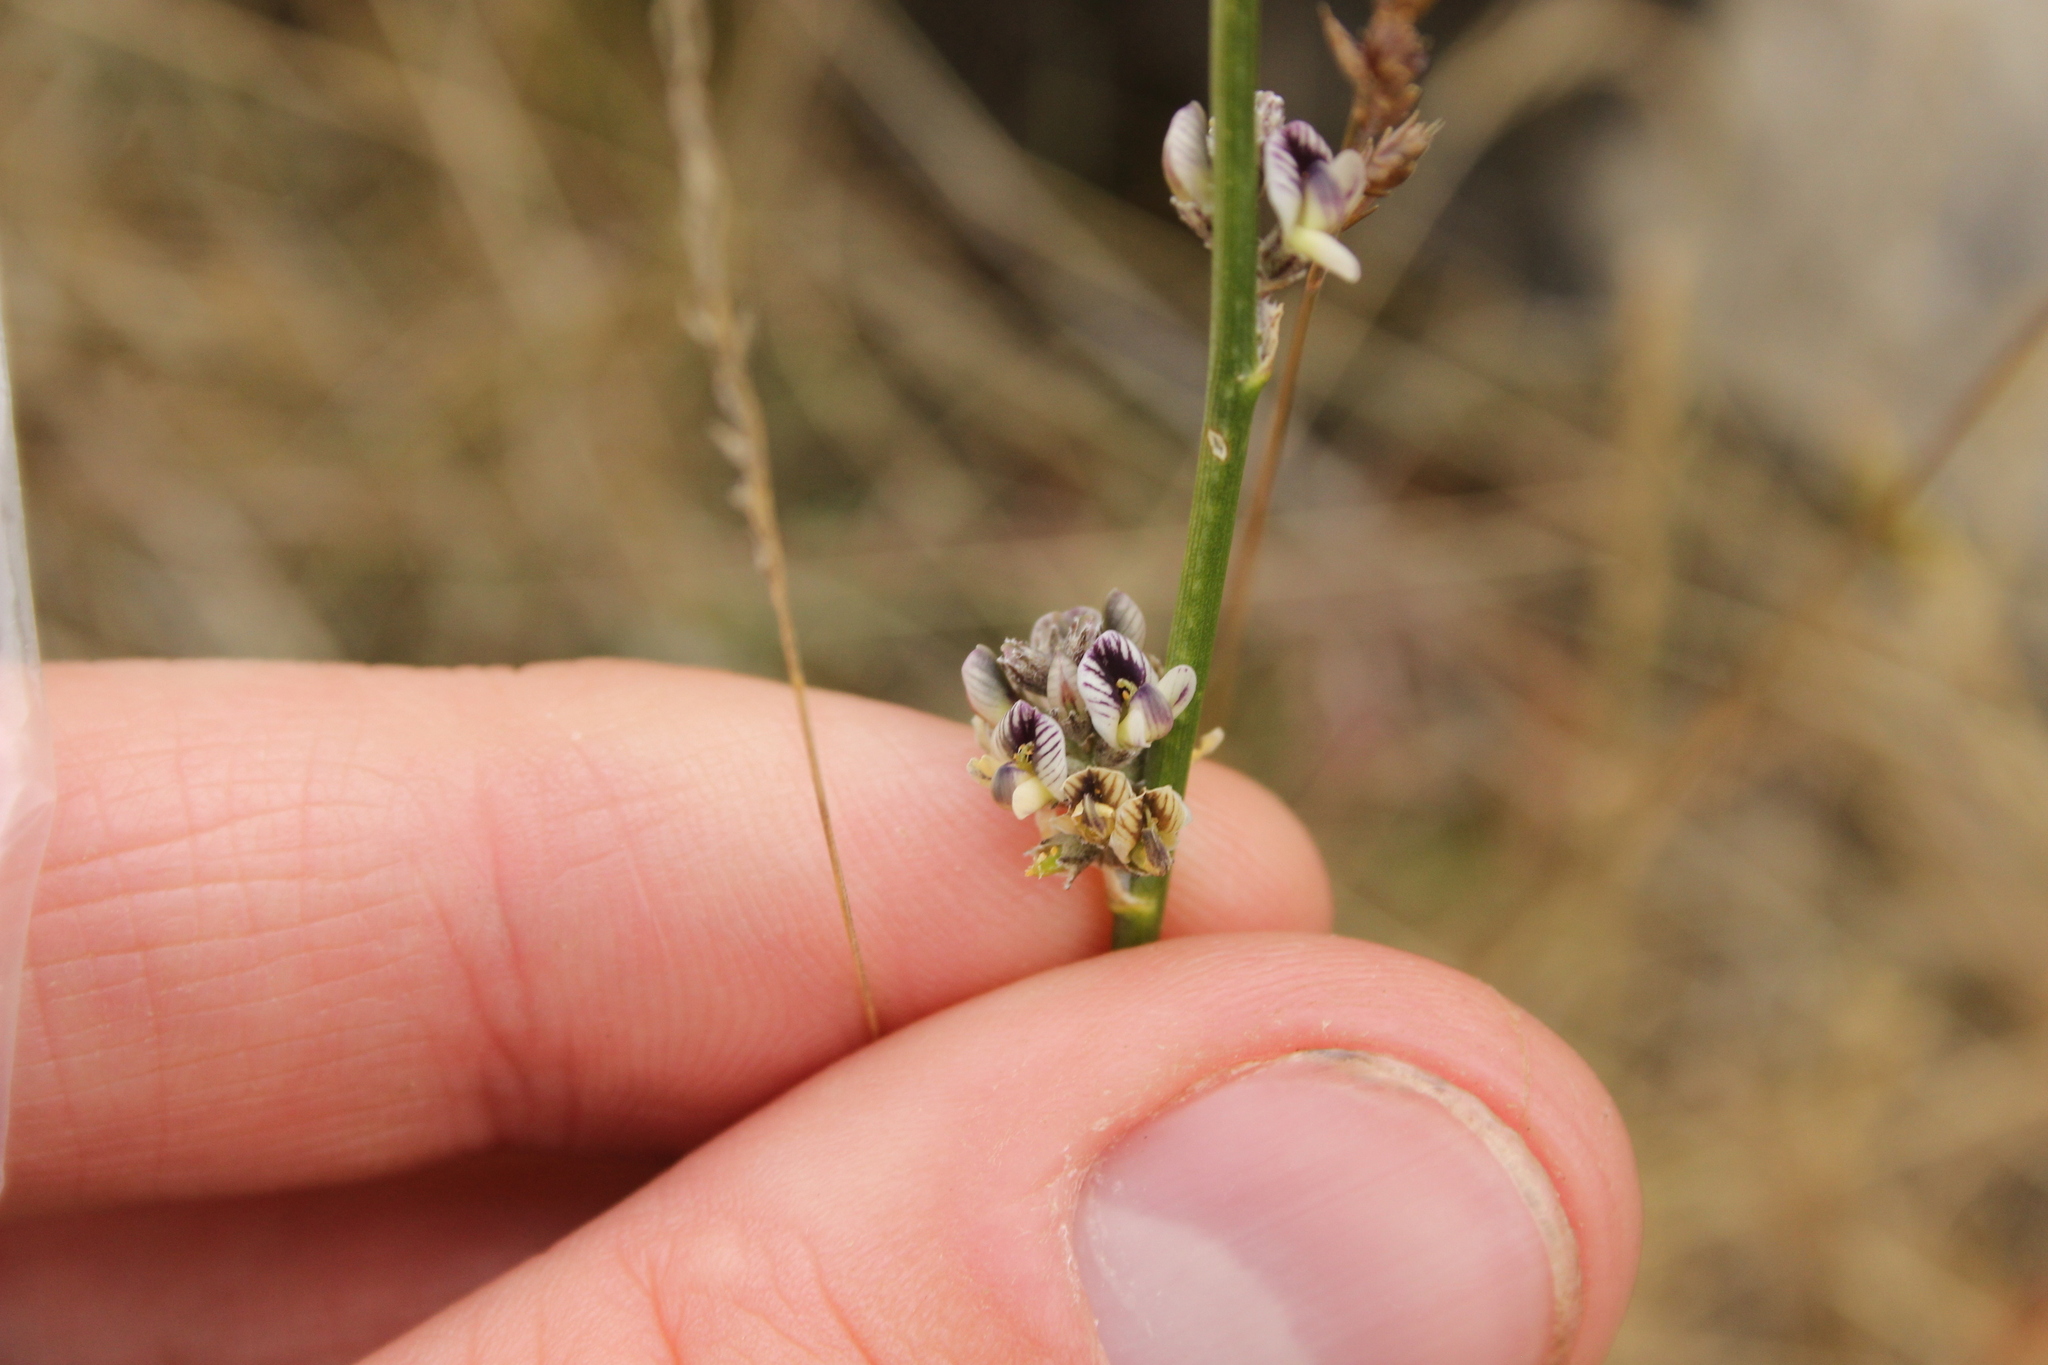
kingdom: Plantae
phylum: Tracheophyta
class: Magnoliopsida
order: Fabales
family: Fabaceae
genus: Carmichaelia
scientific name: Carmichaelia curta
